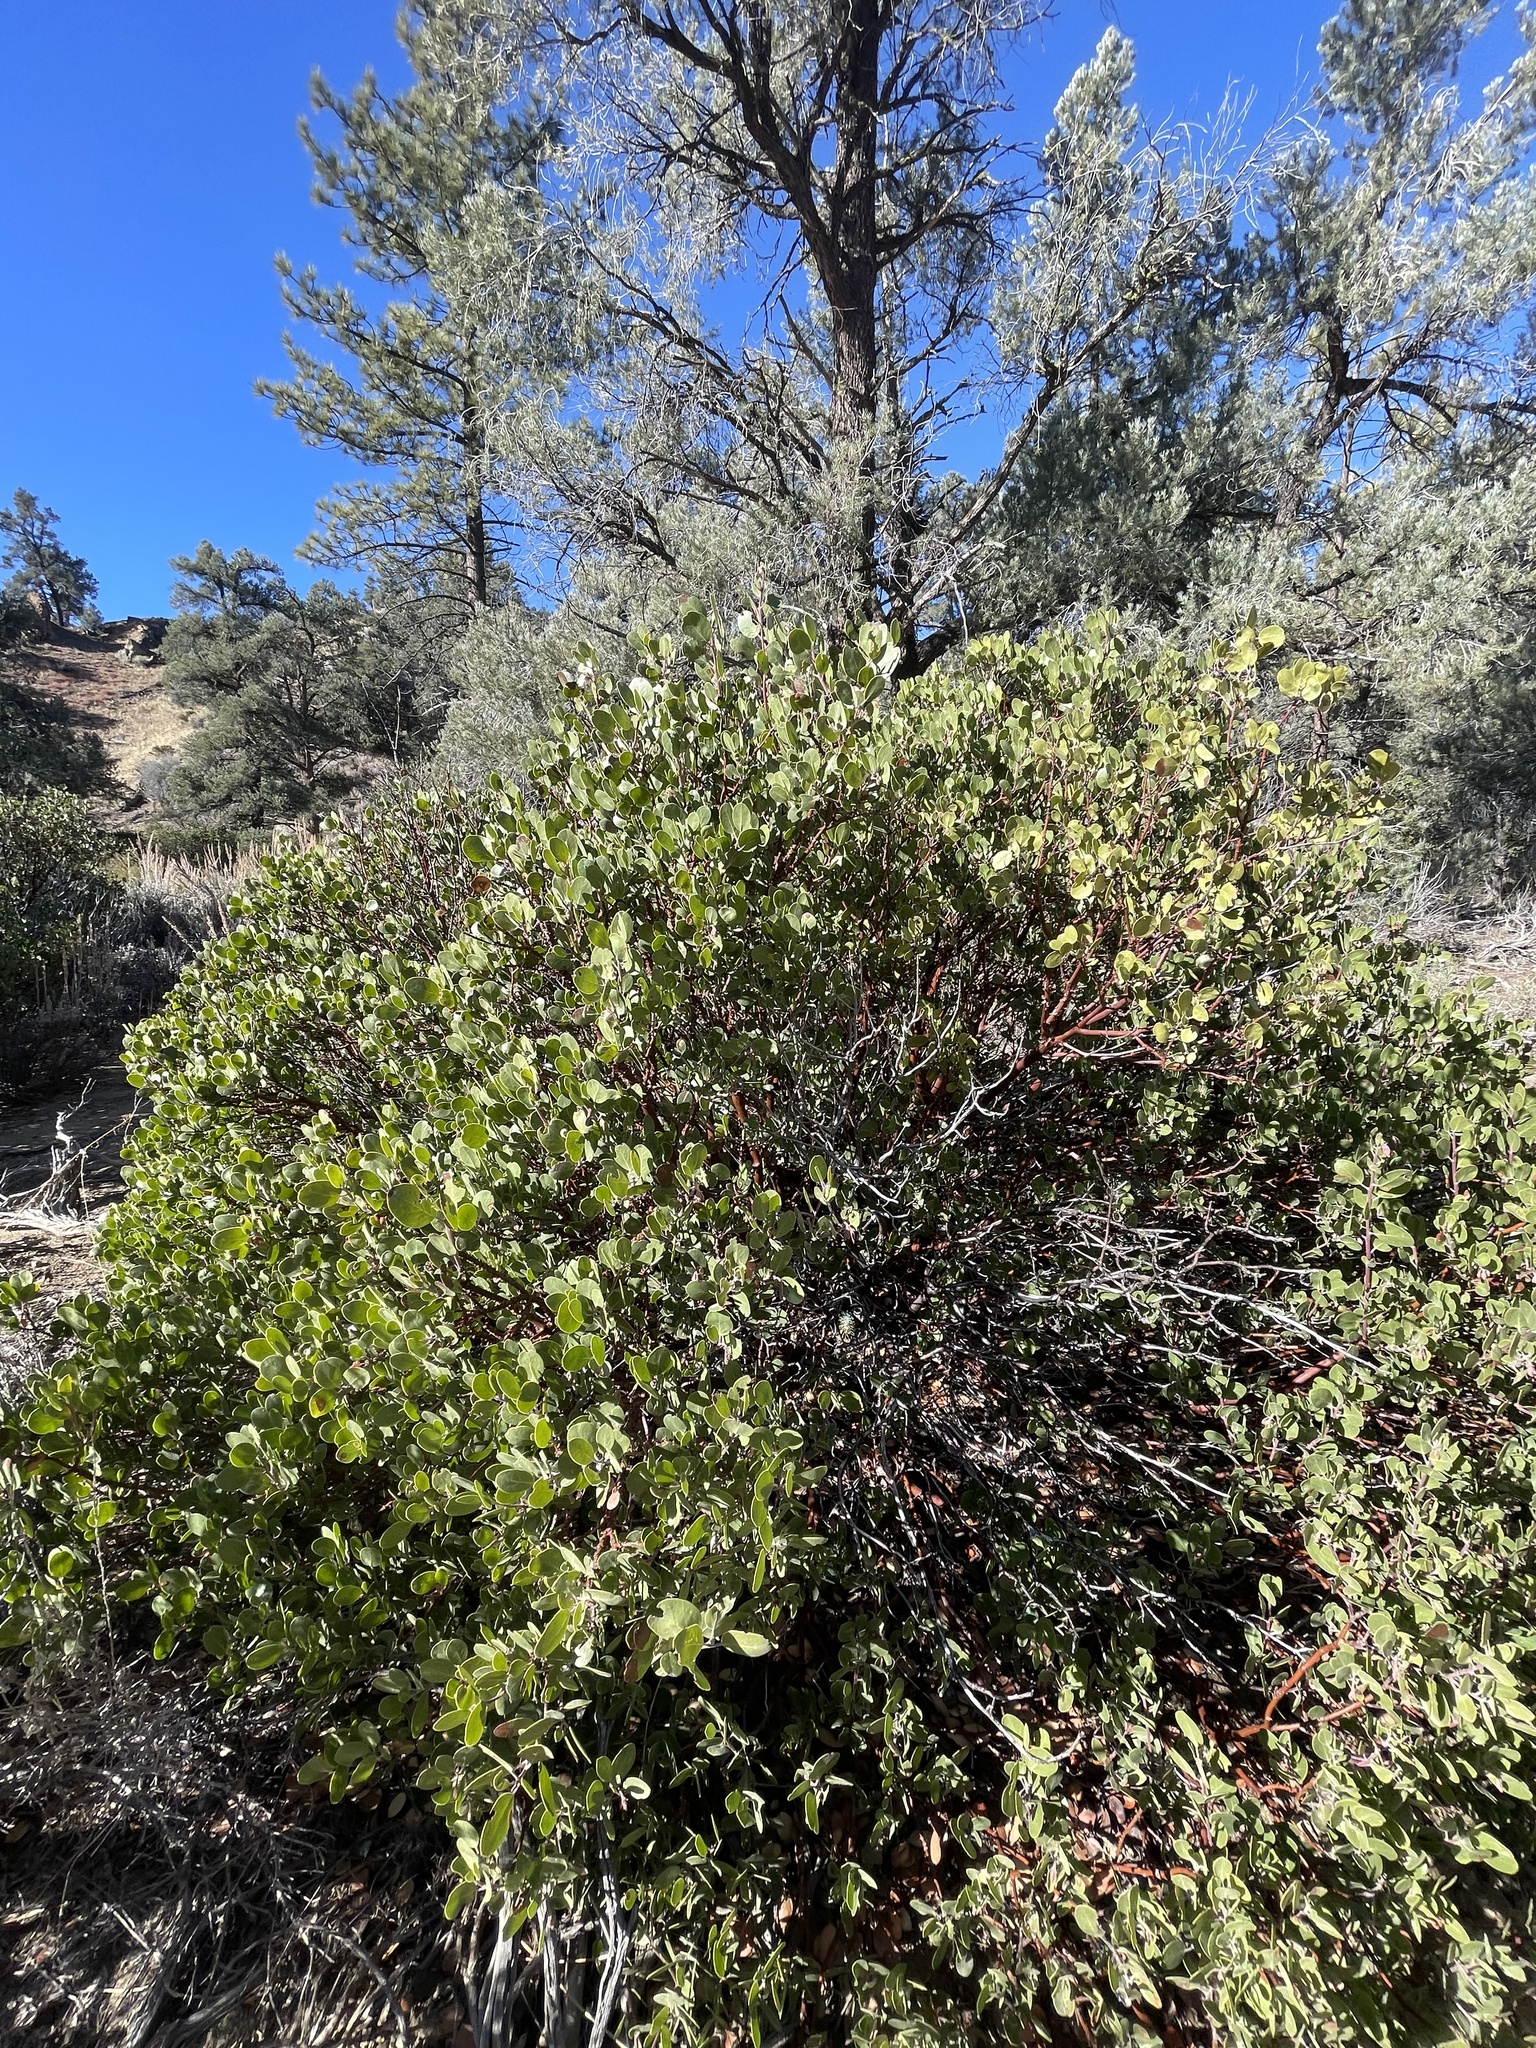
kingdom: Plantae
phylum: Tracheophyta
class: Magnoliopsida
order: Ericales
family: Ericaceae
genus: Arctostaphylos
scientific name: Arctostaphylos parryana
